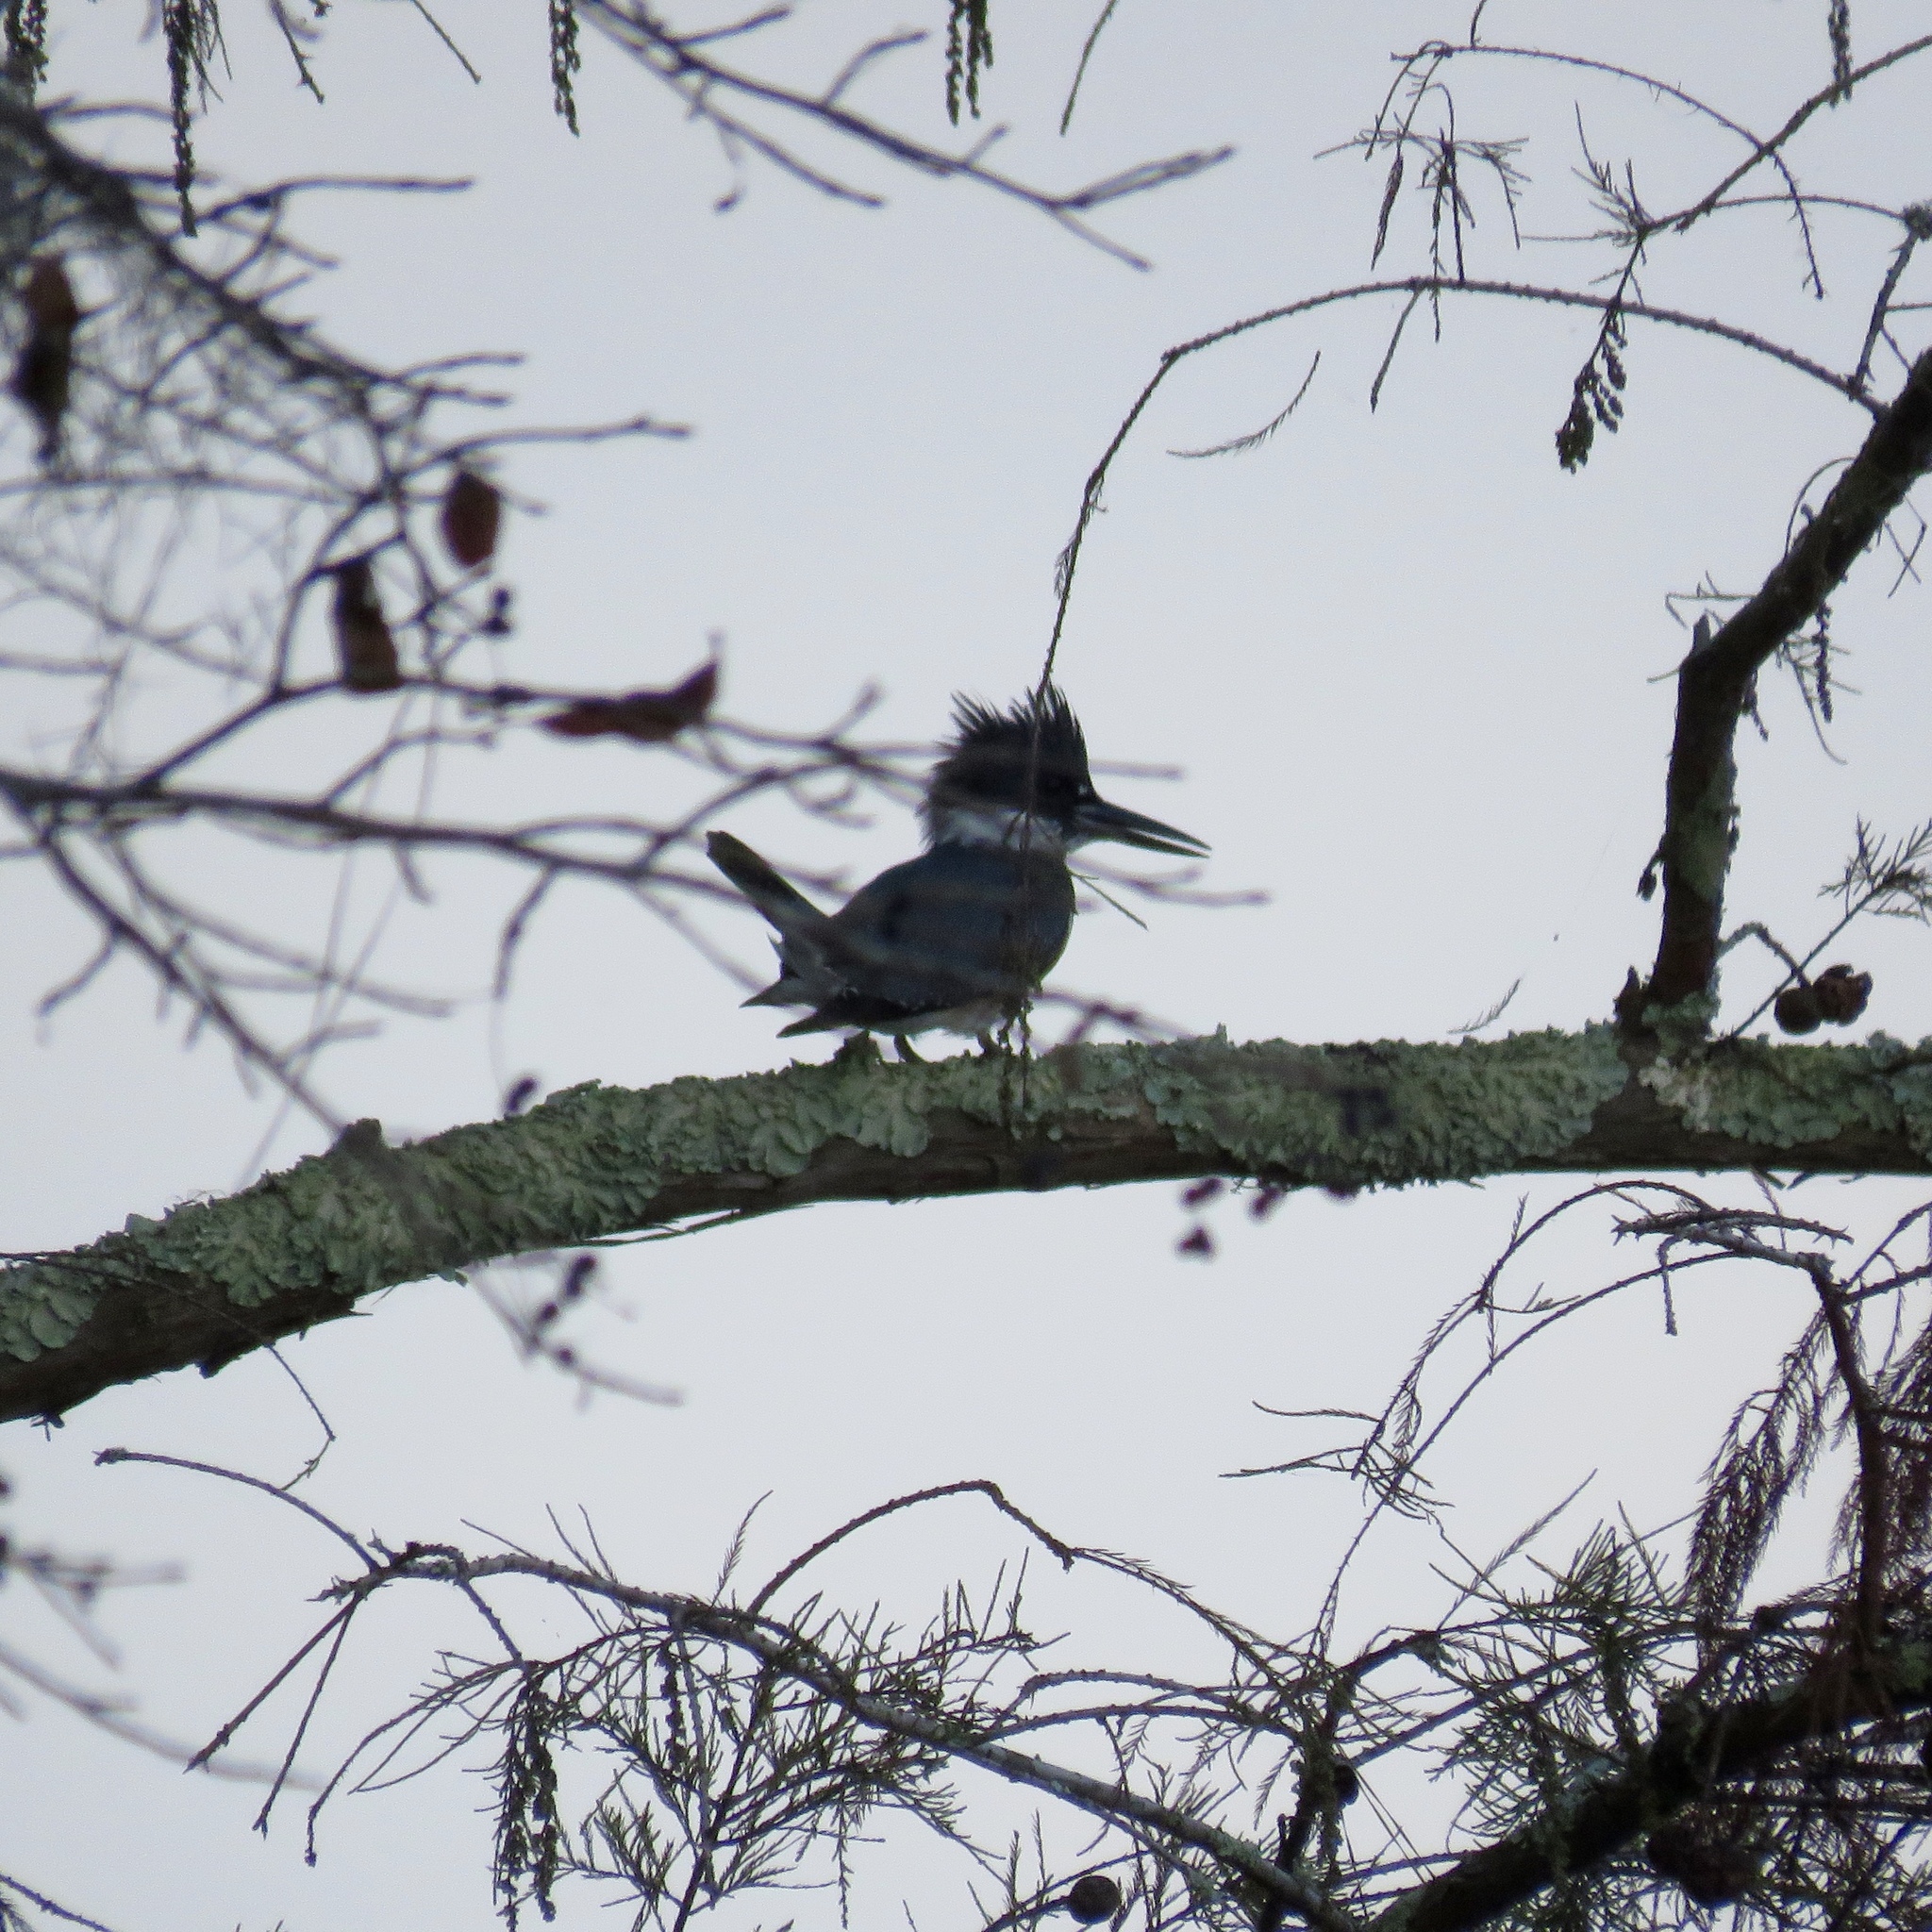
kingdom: Animalia
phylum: Chordata
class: Aves
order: Coraciiformes
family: Alcedinidae
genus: Megaceryle
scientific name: Megaceryle alcyon
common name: Belted kingfisher
